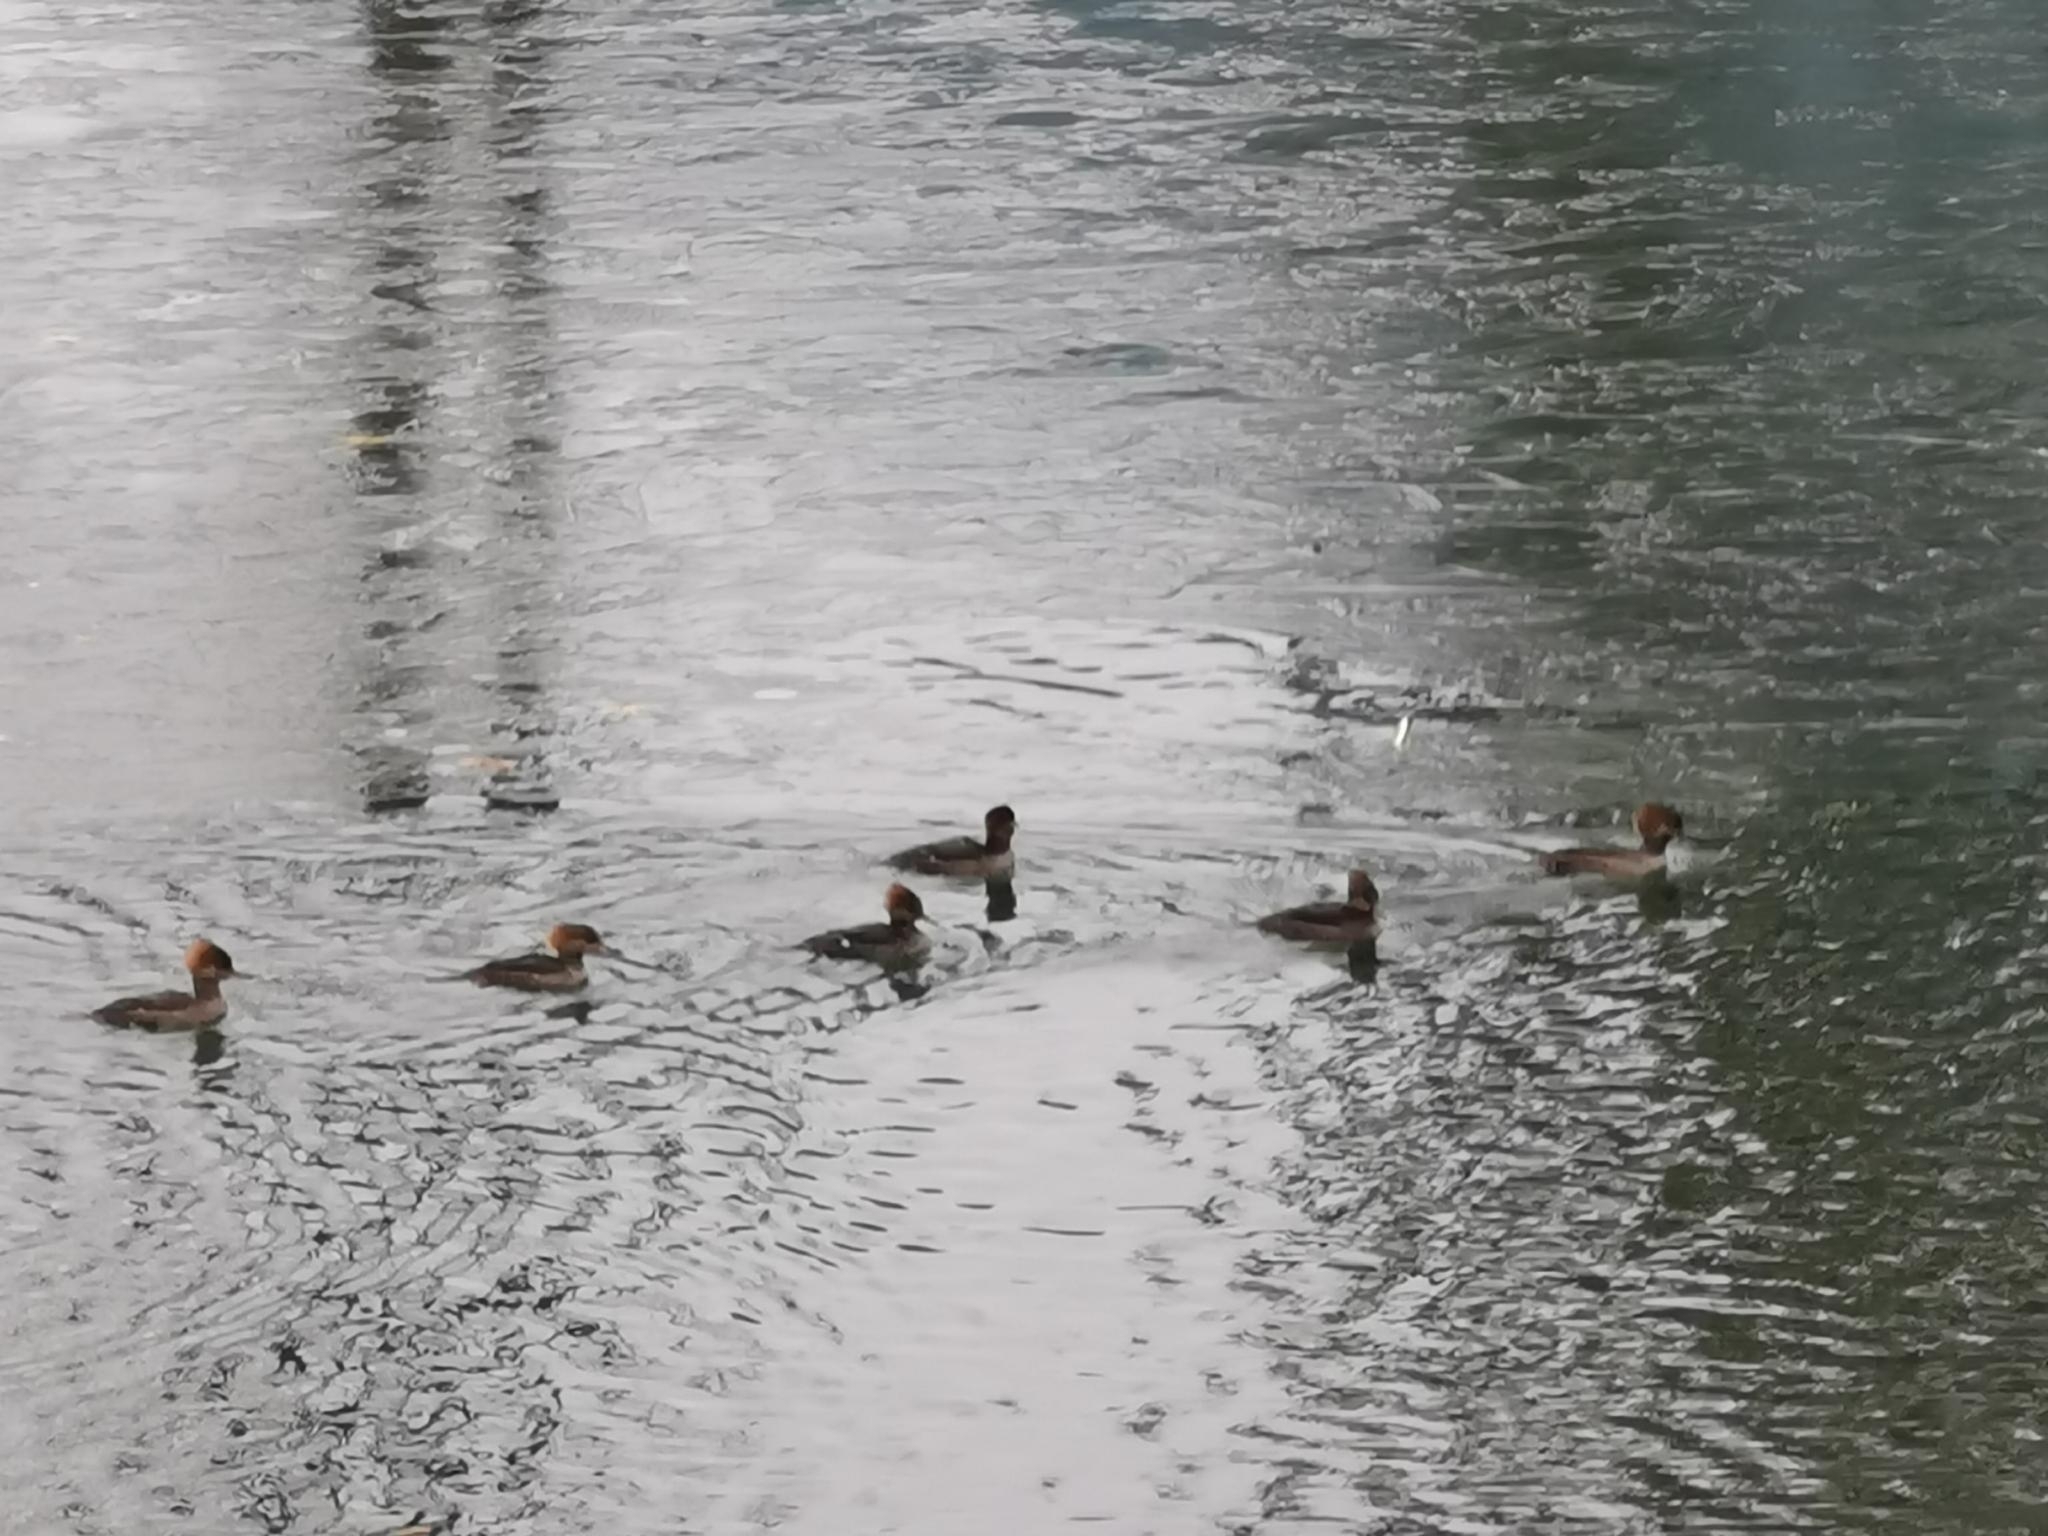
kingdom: Animalia
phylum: Chordata
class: Aves
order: Anseriformes
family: Anatidae
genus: Lophodytes
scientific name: Lophodytes cucullatus
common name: Hooded merganser
